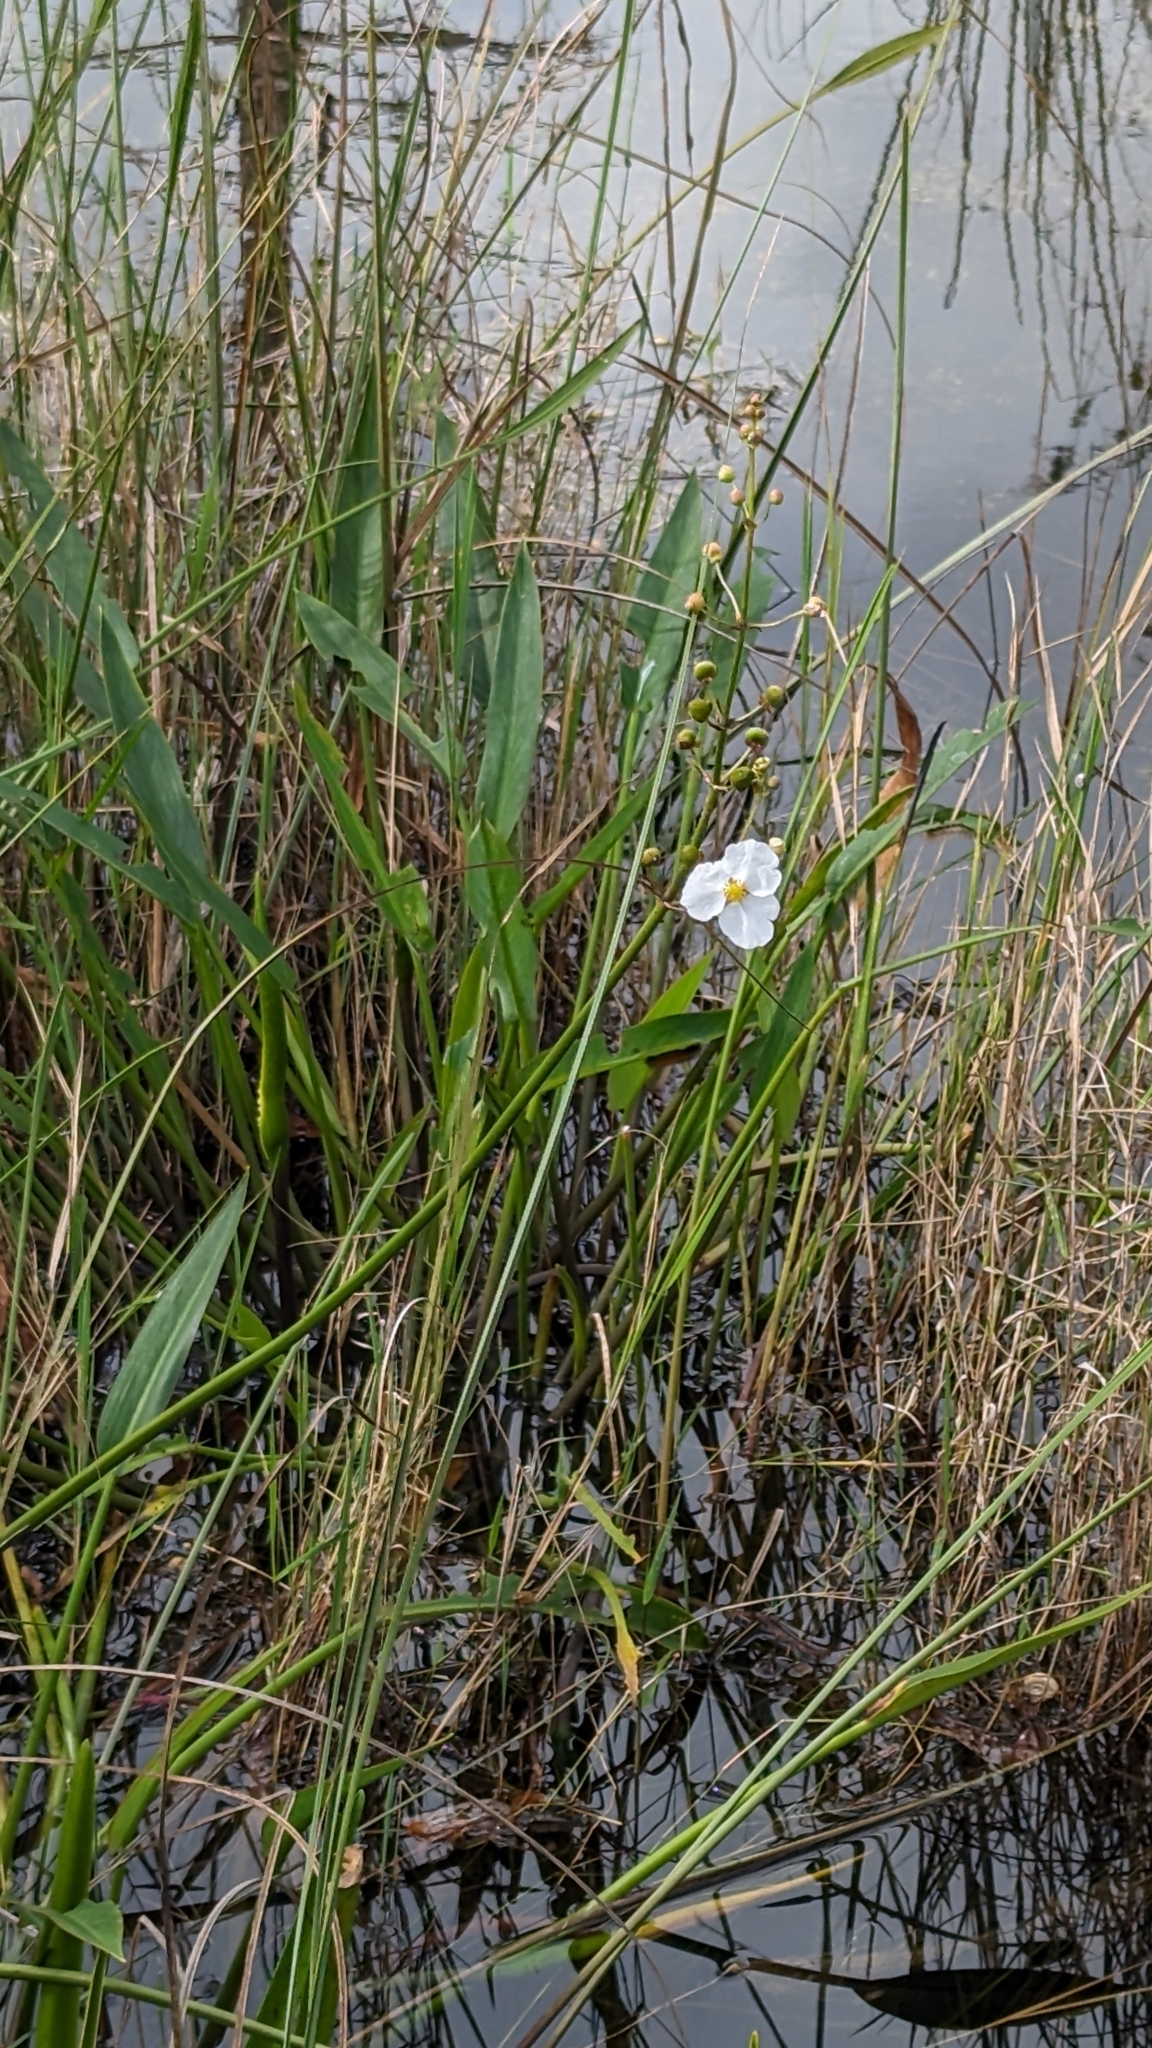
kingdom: Plantae
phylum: Tracheophyta
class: Liliopsida
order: Alismatales
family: Alismataceae
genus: Sagittaria
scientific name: Sagittaria lancifolia
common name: Lance-leaf arrowhead
